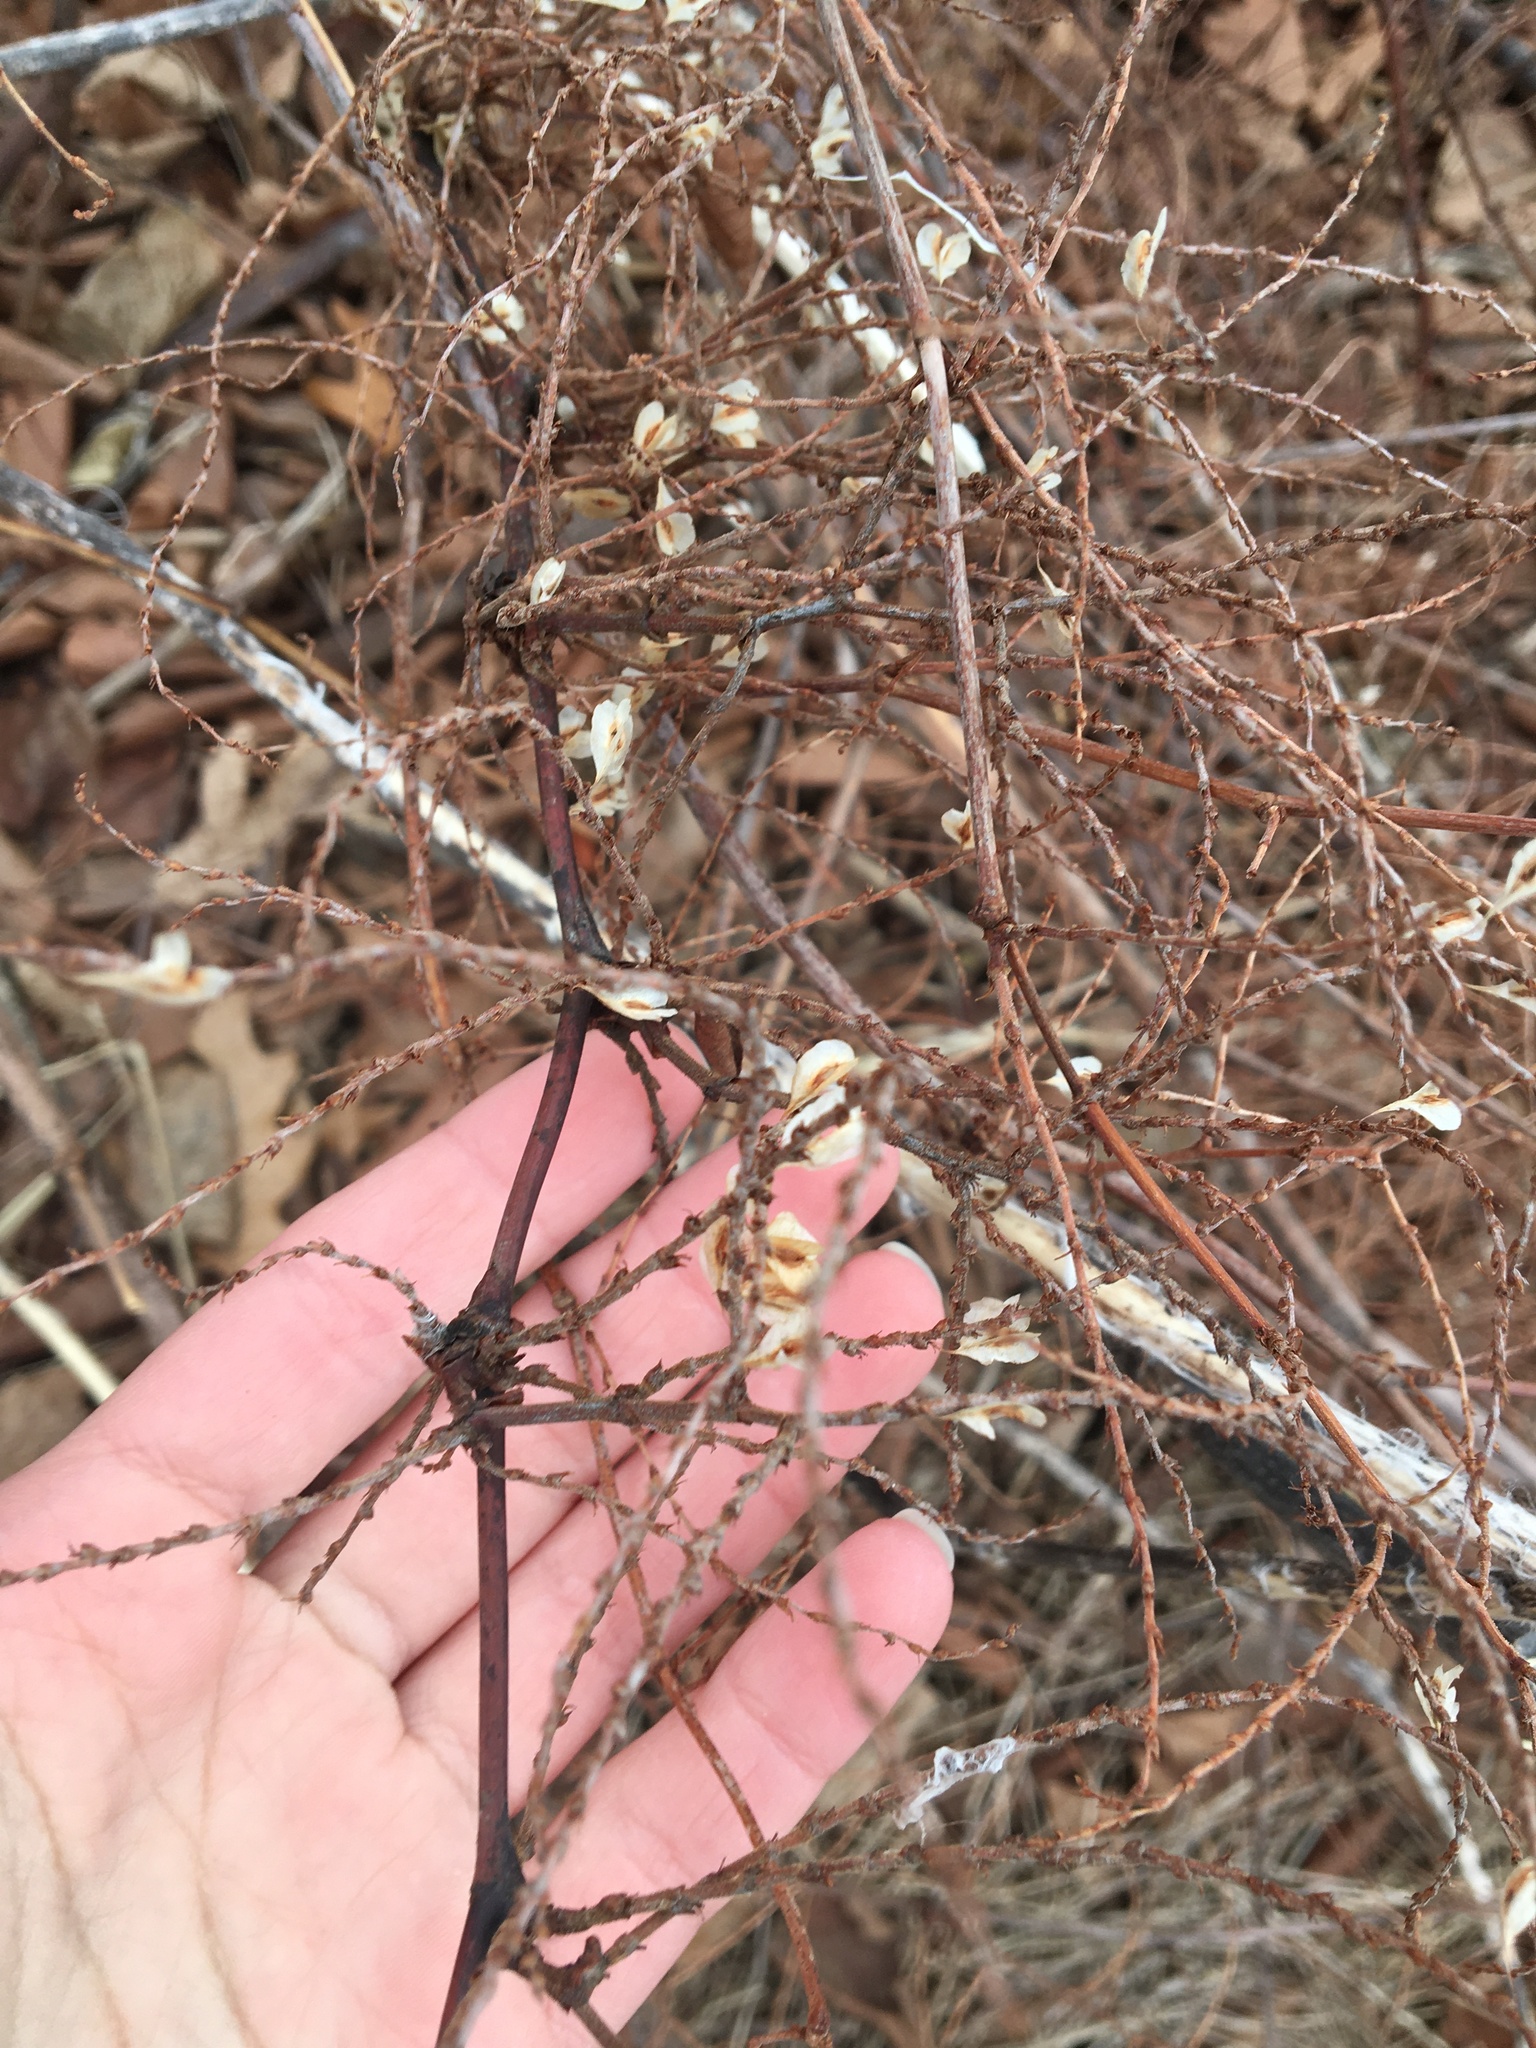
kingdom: Plantae
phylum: Tracheophyta
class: Magnoliopsida
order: Caryophyllales
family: Polygonaceae
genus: Reynoutria
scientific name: Reynoutria japonica
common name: Japanese knotweed
